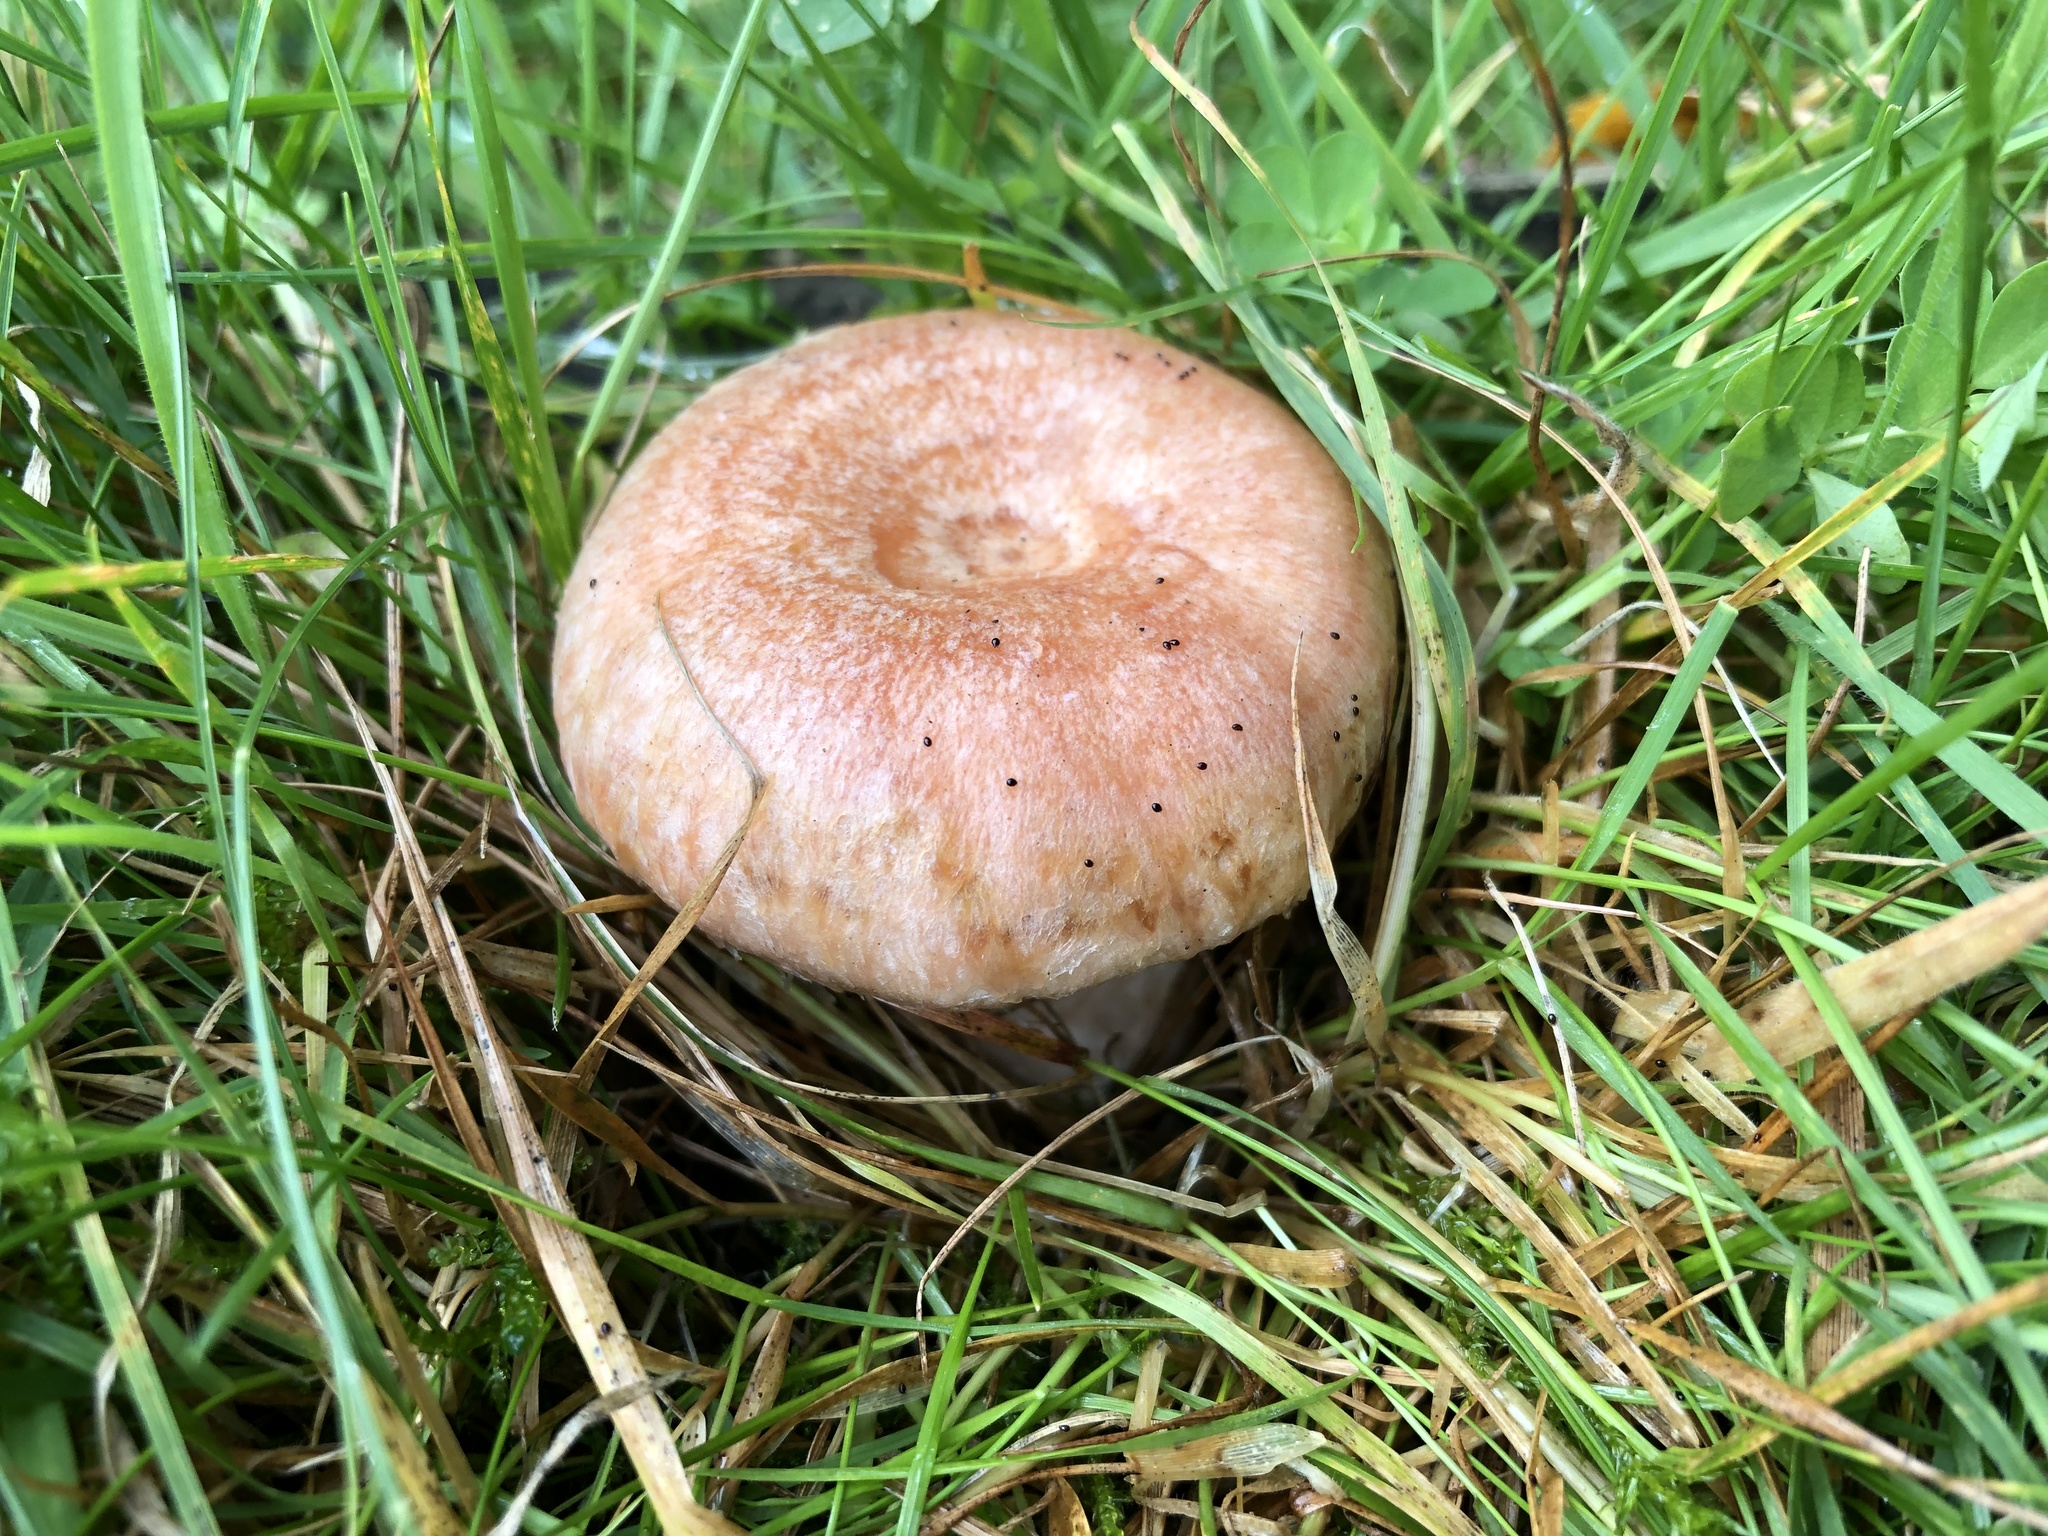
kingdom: Fungi
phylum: Basidiomycota
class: Agaricomycetes
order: Russulales
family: Russulaceae
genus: Lactarius
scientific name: Lactarius torminosus
